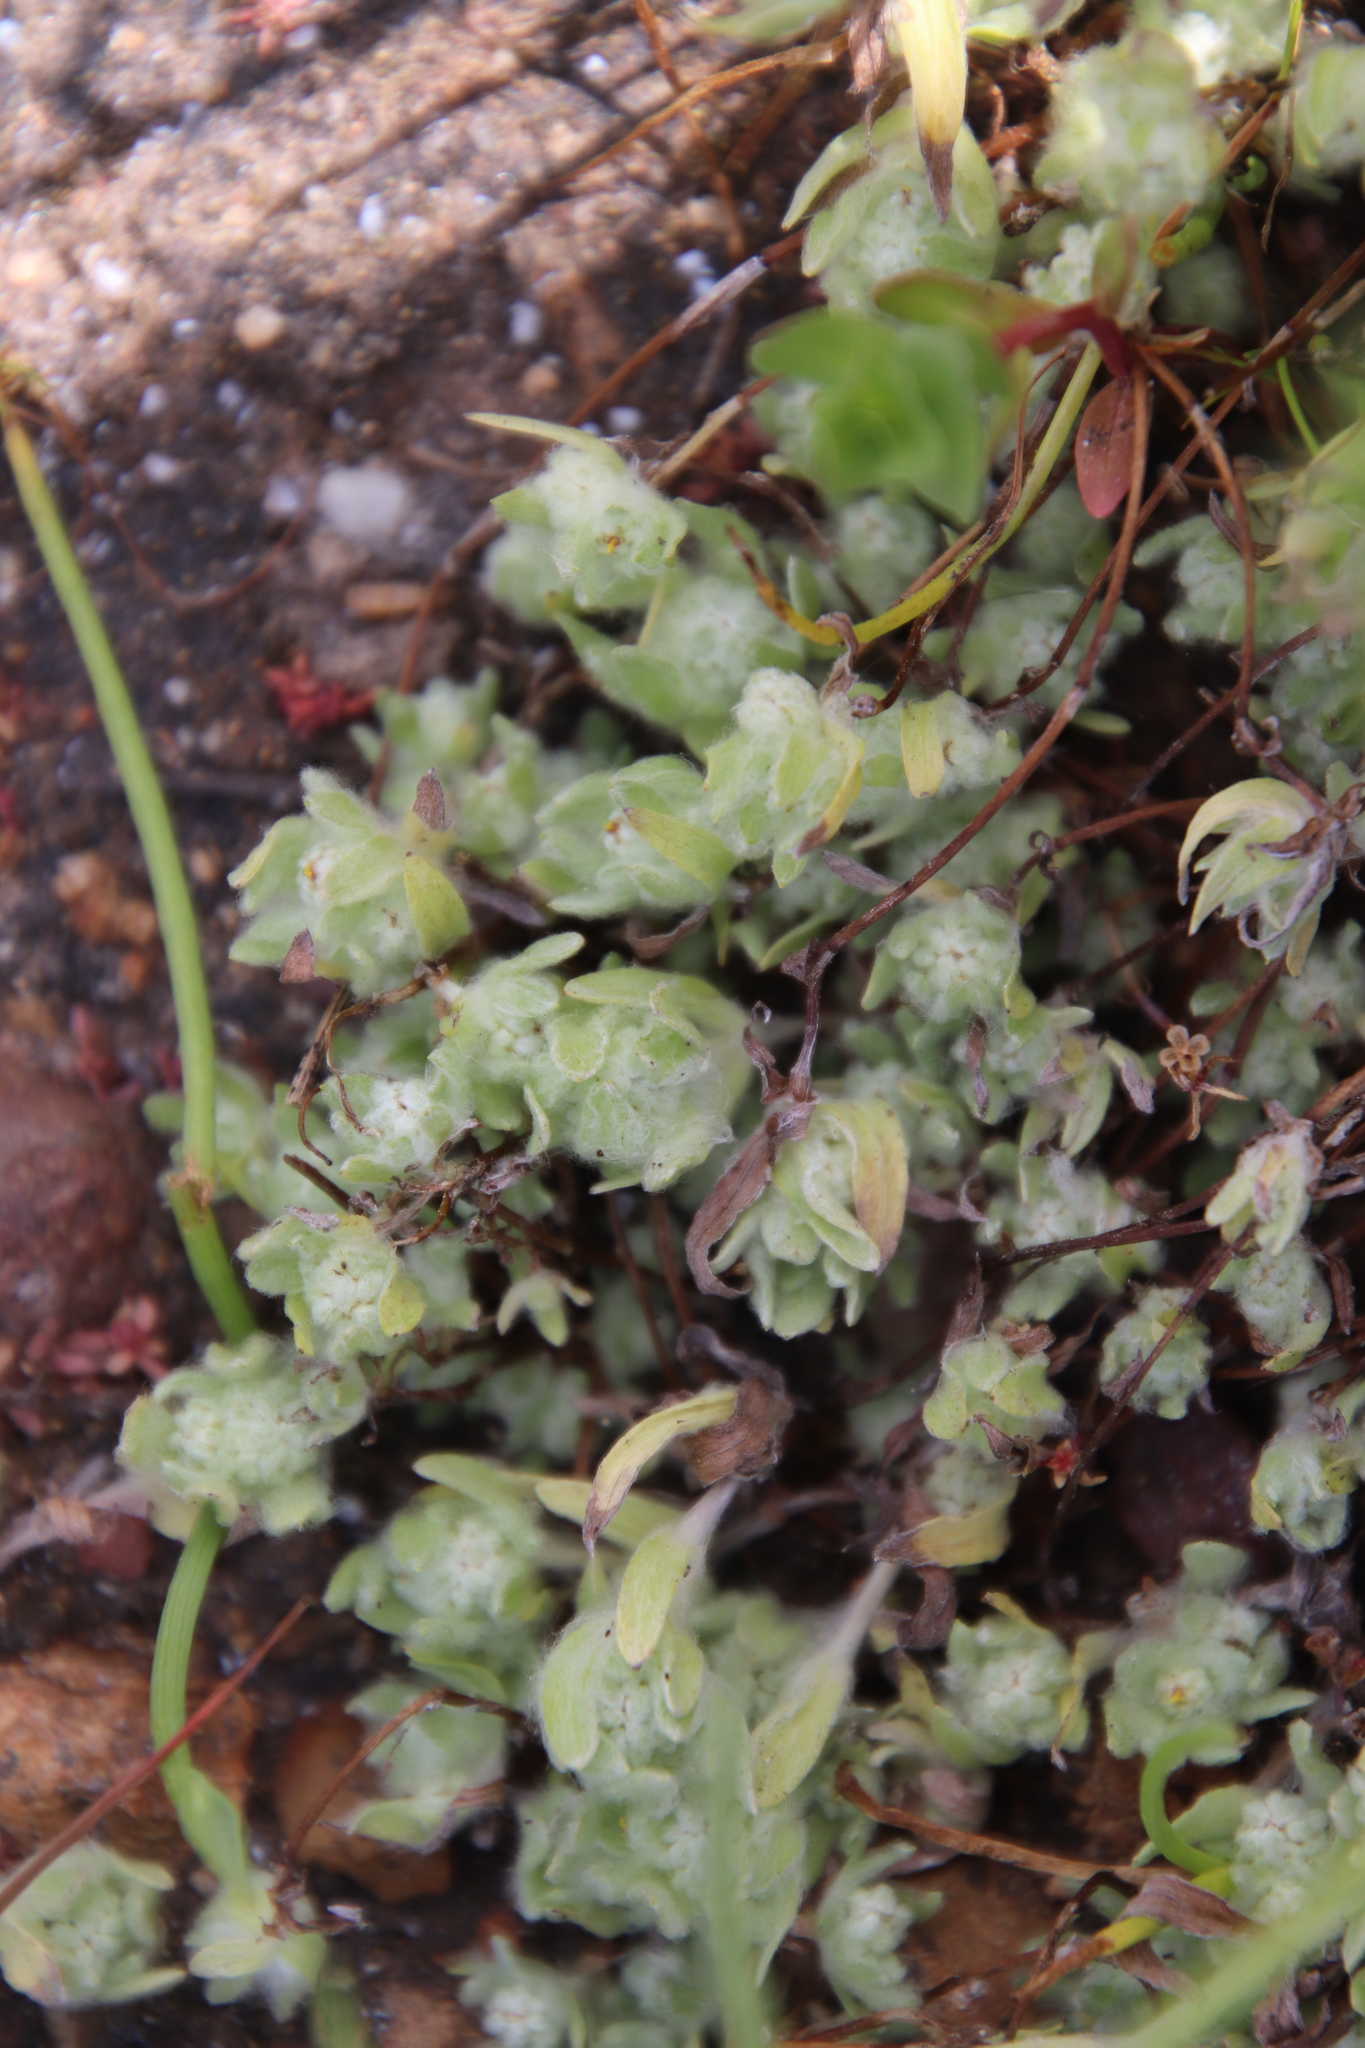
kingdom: Plantae
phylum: Tracheophyta
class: Magnoliopsida
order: Asterales
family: Asteraceae
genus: Psilocarphus
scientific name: Psilocarphus tenellus
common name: Slender woolly-marbles
